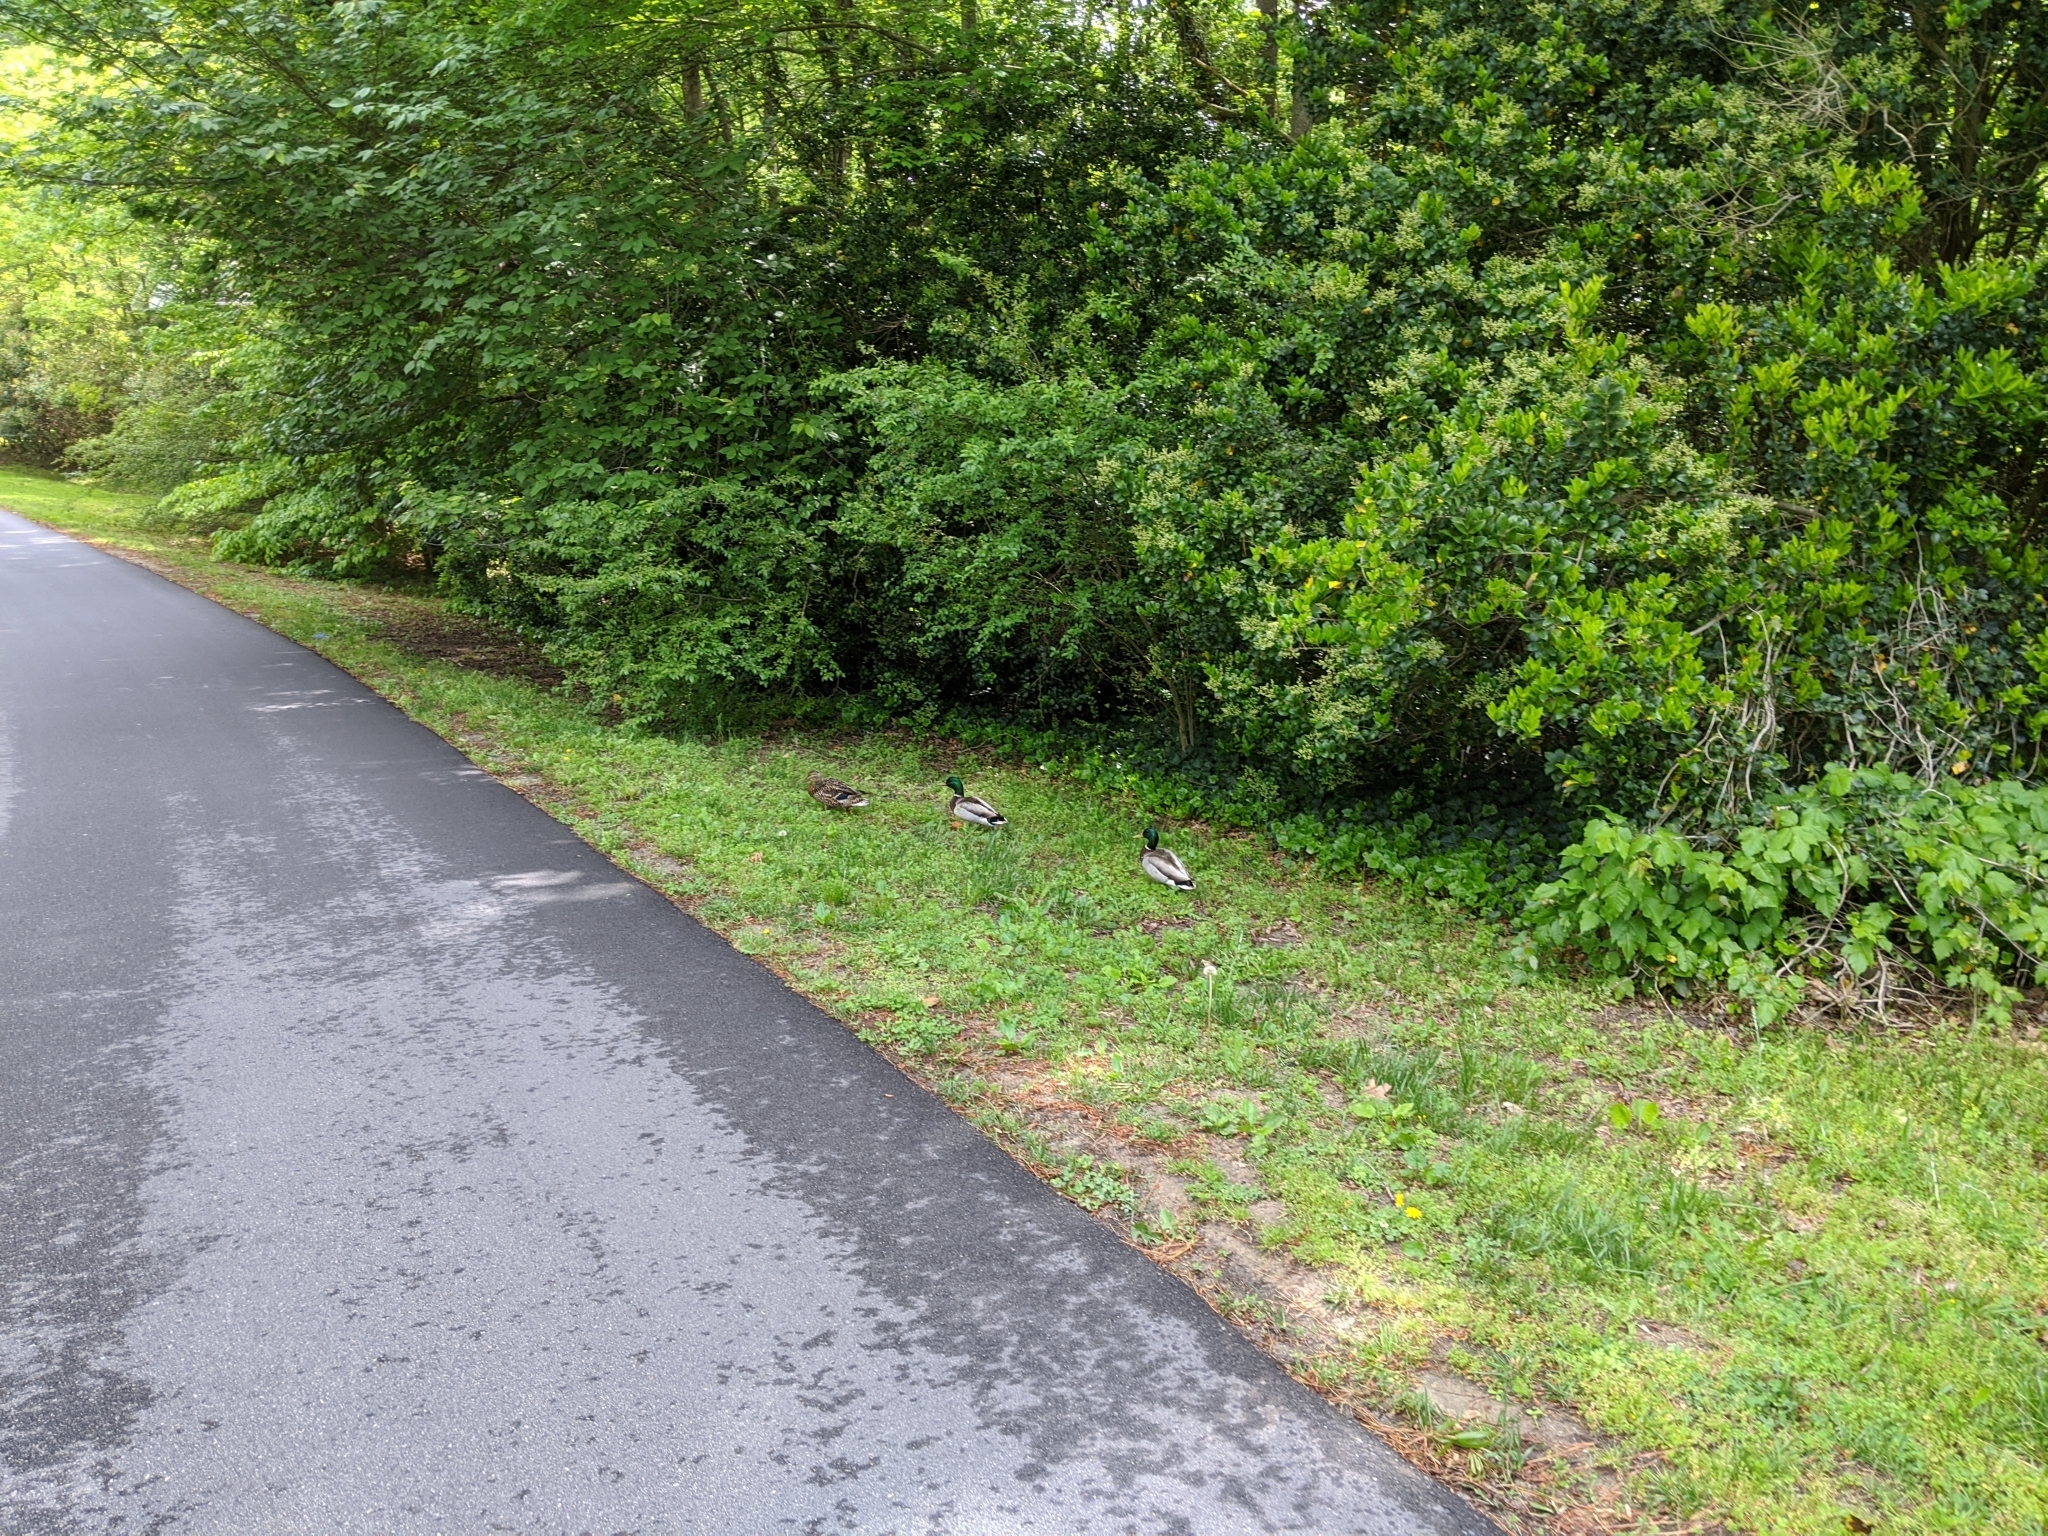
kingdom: Animalia
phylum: Chordata
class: Aves
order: Anseriformes
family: Anatidae
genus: Anas
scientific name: Anas platyrhynchos
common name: Mallard
